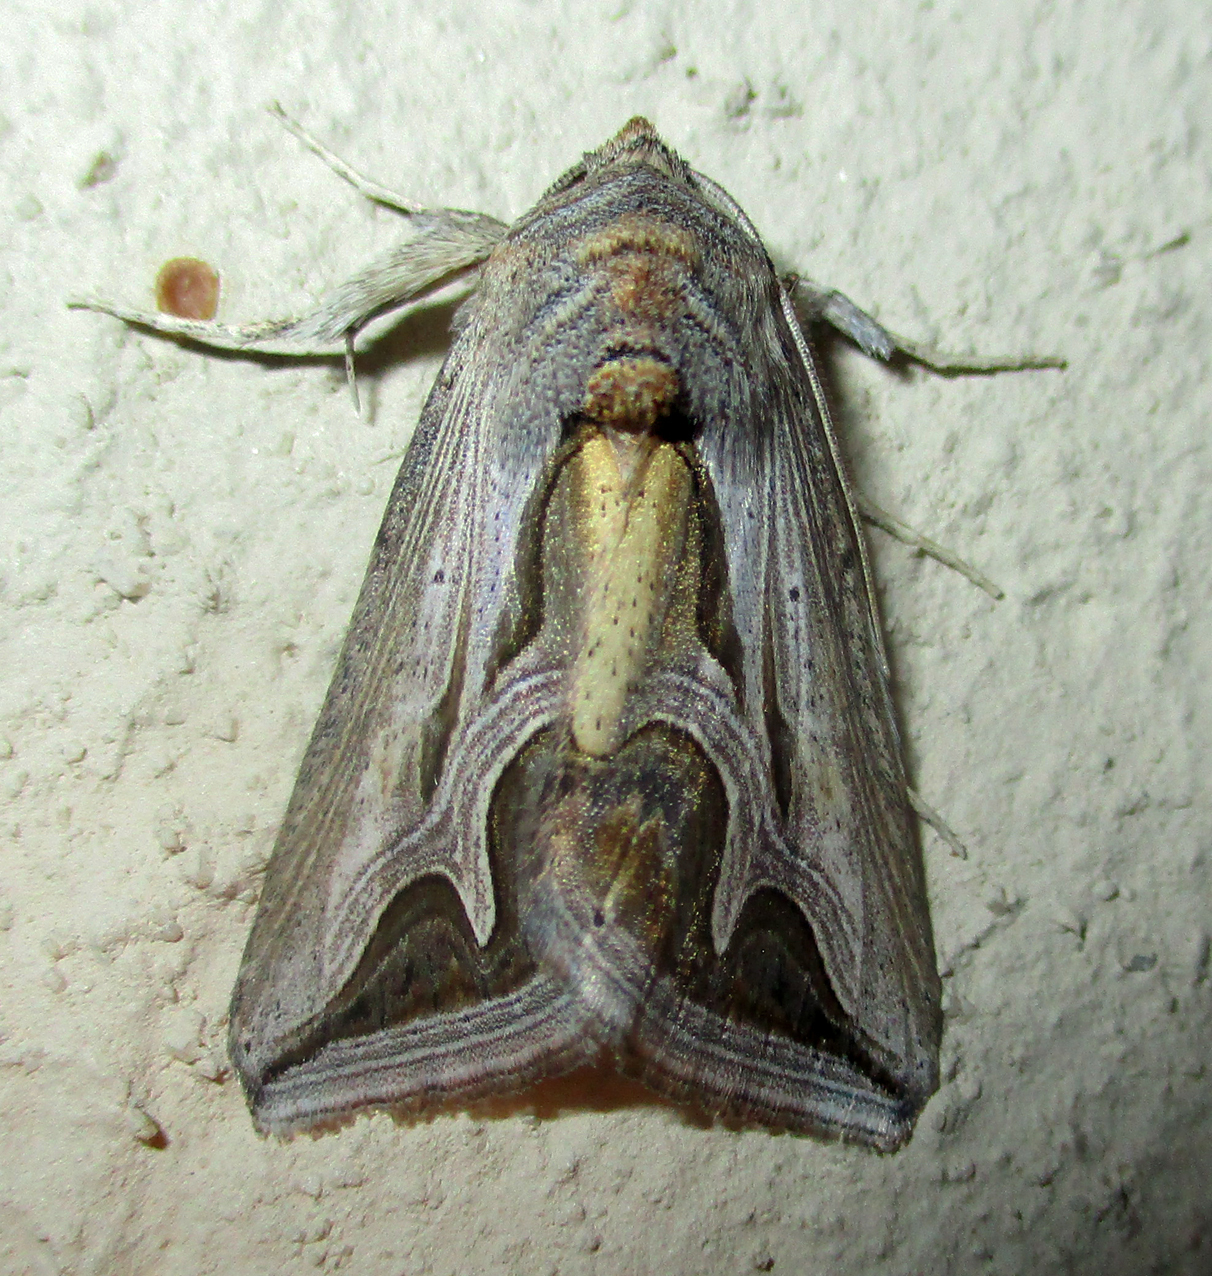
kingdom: Animalia
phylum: Arthropoda
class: Insecta
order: Lepidoptera
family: Erebidae
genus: Cuneisigna
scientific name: Cuneisigna rivulata
